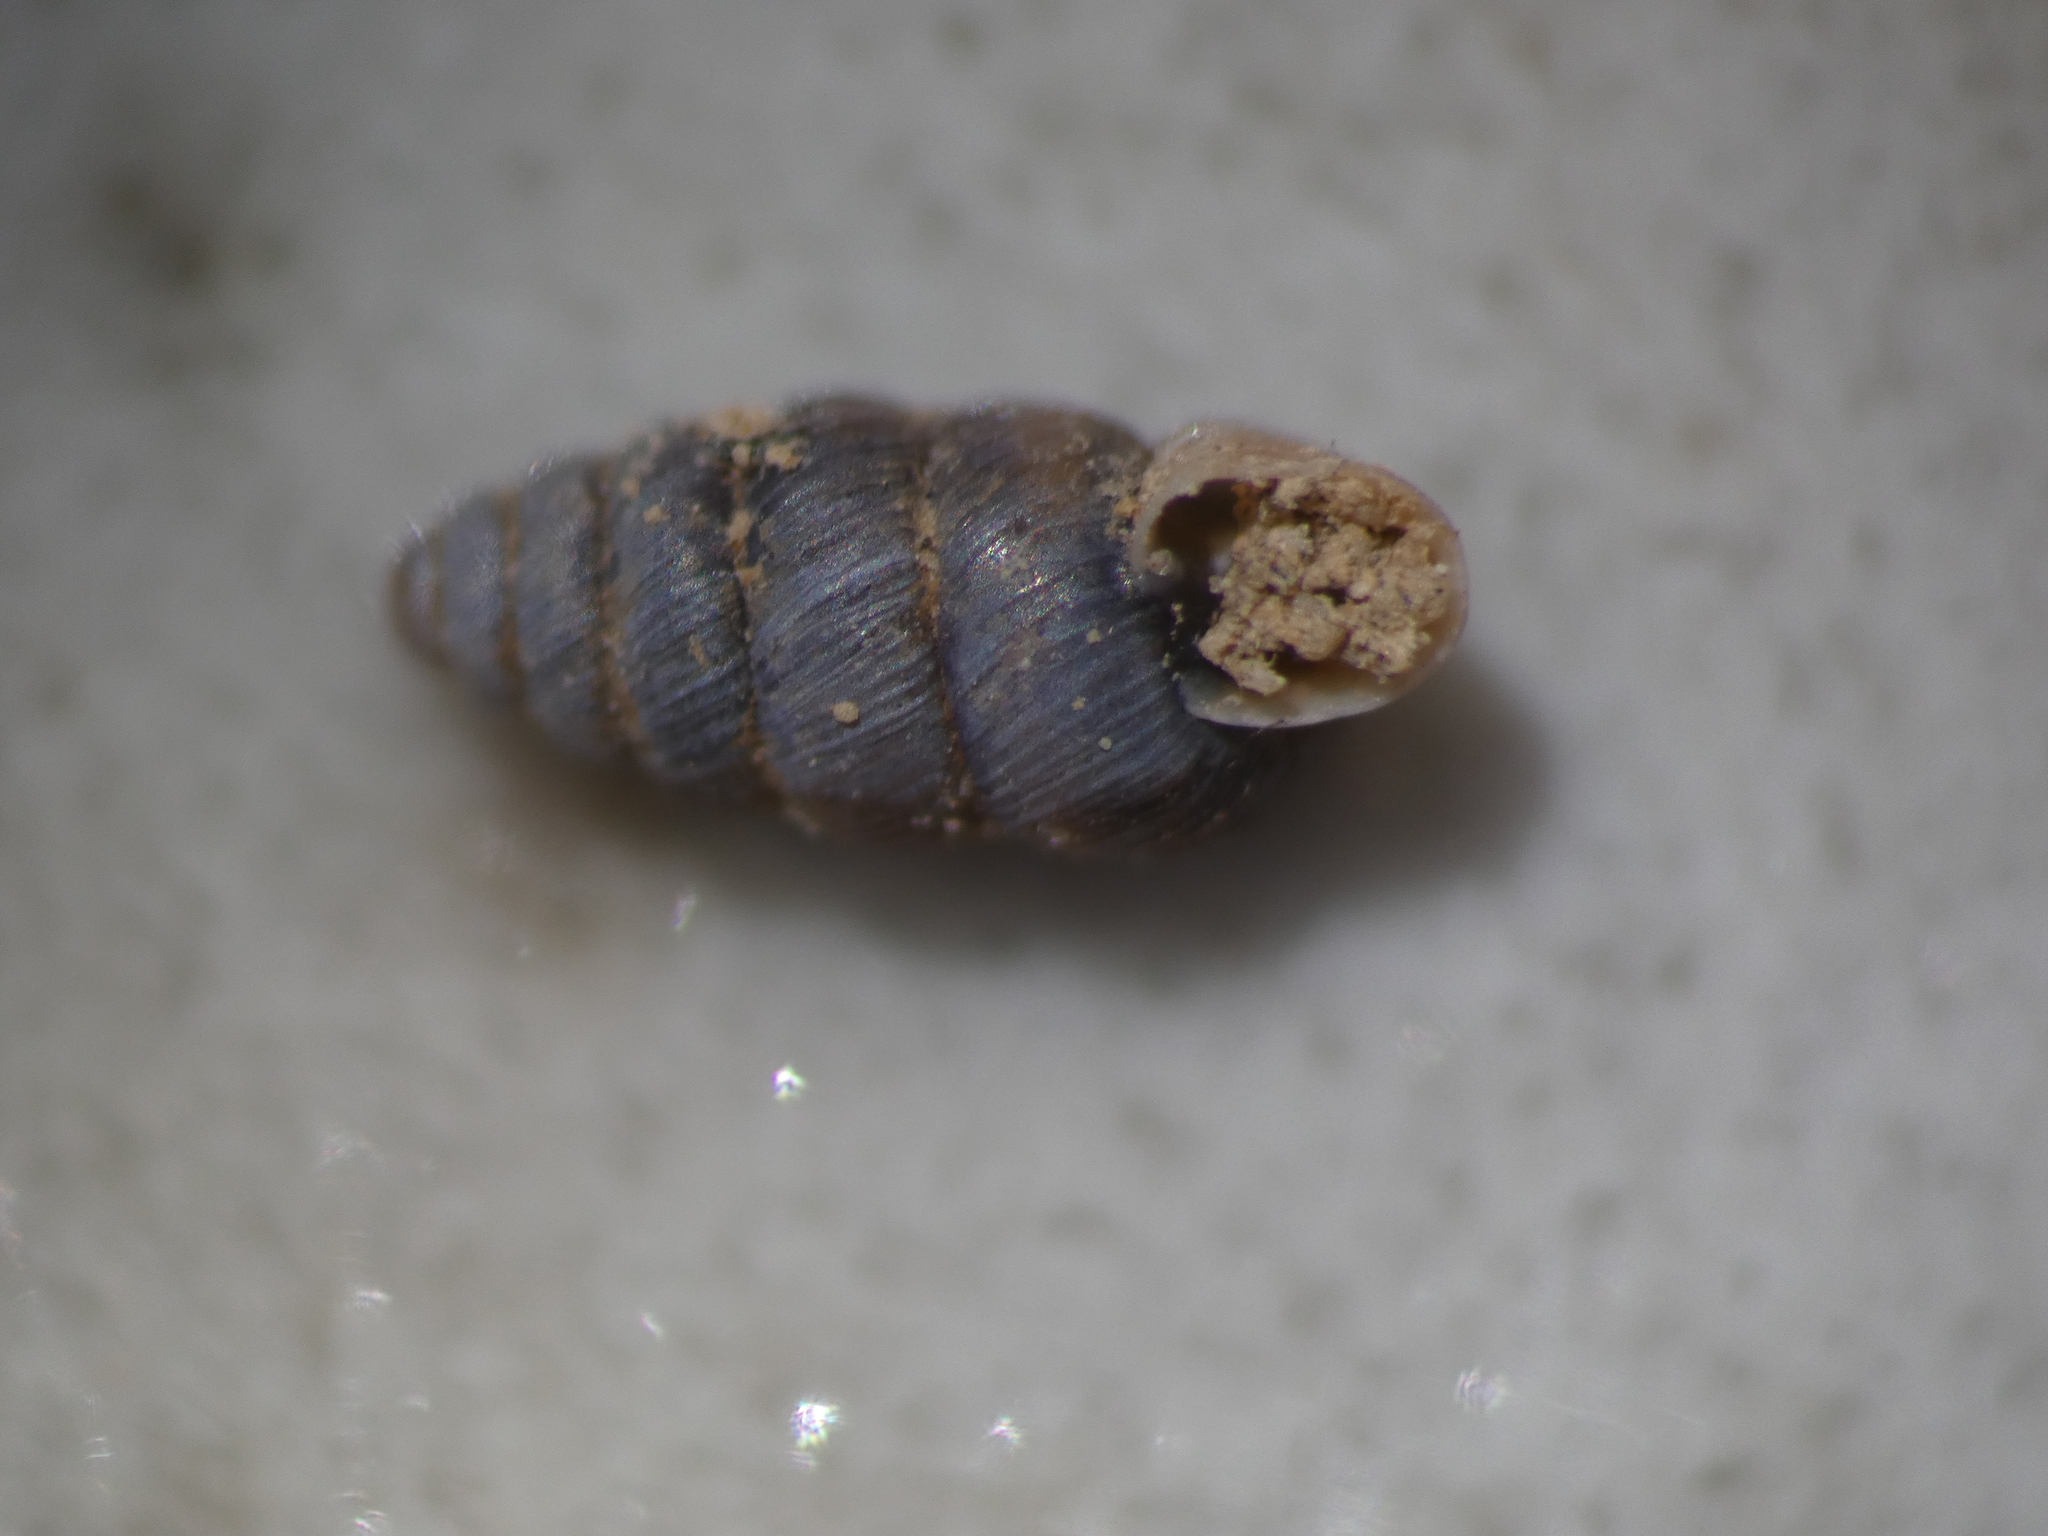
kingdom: Animalia
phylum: Mollusca
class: Gastropoda
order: Stylommatophora
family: Chondrinidae
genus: Granopupa
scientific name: Granopupa granum
